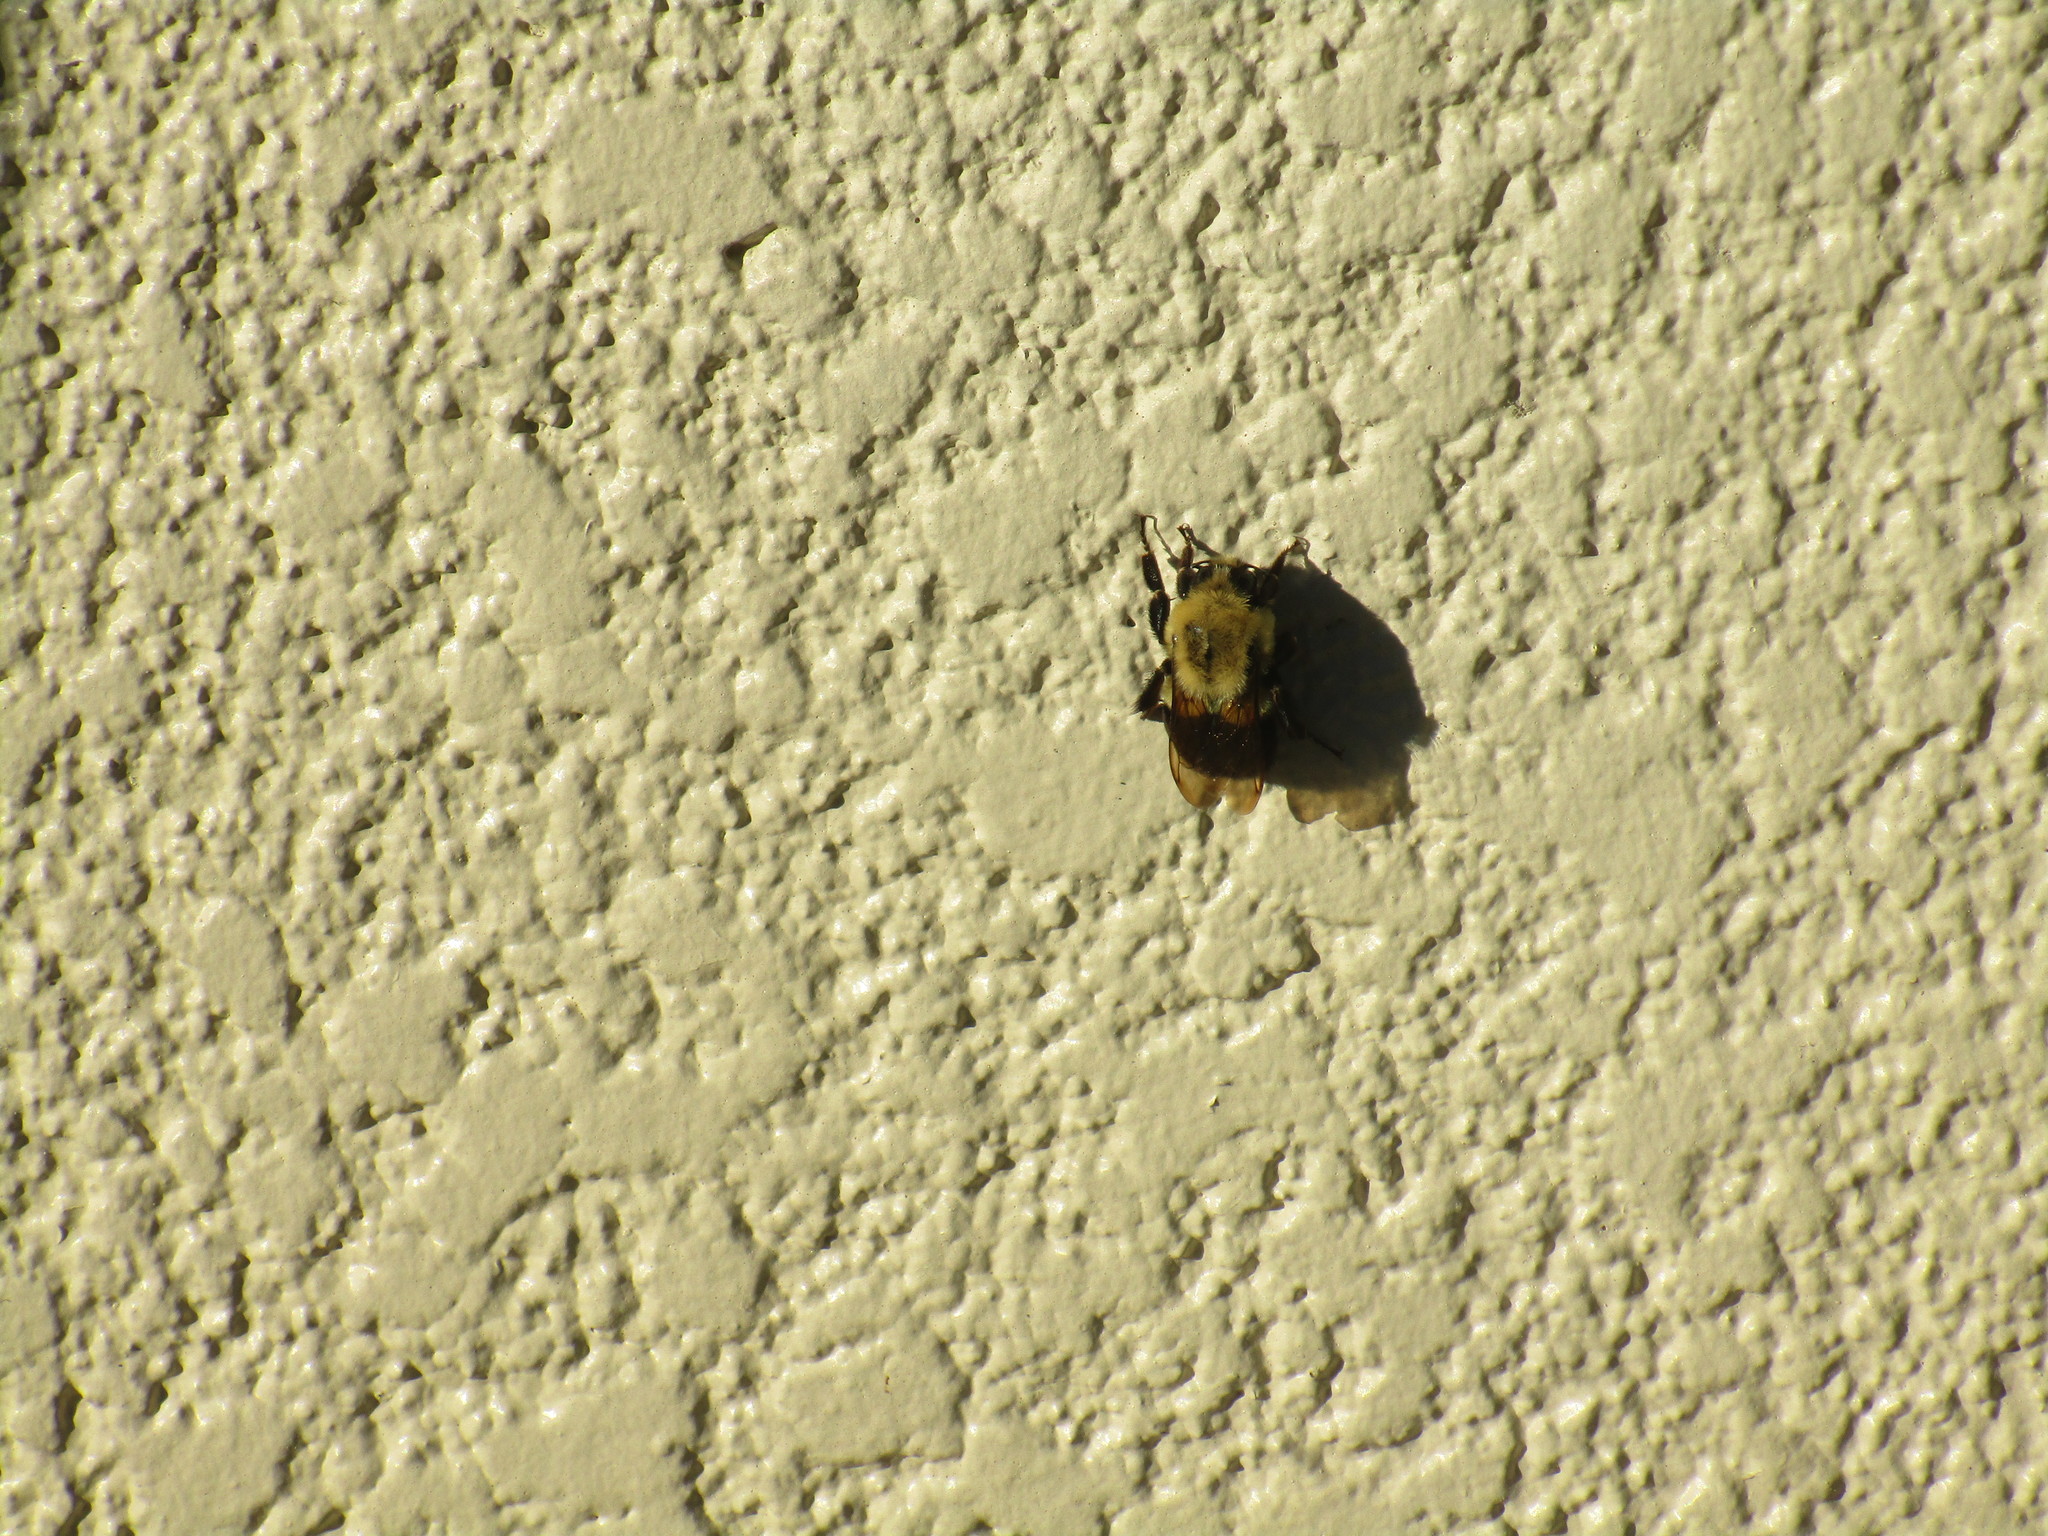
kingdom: Animalia
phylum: Arthropoda
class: Insecta
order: Hymenoptera
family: Apidae
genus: Bombus
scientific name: Bombus impatiens
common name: Common eastern bumble bee
